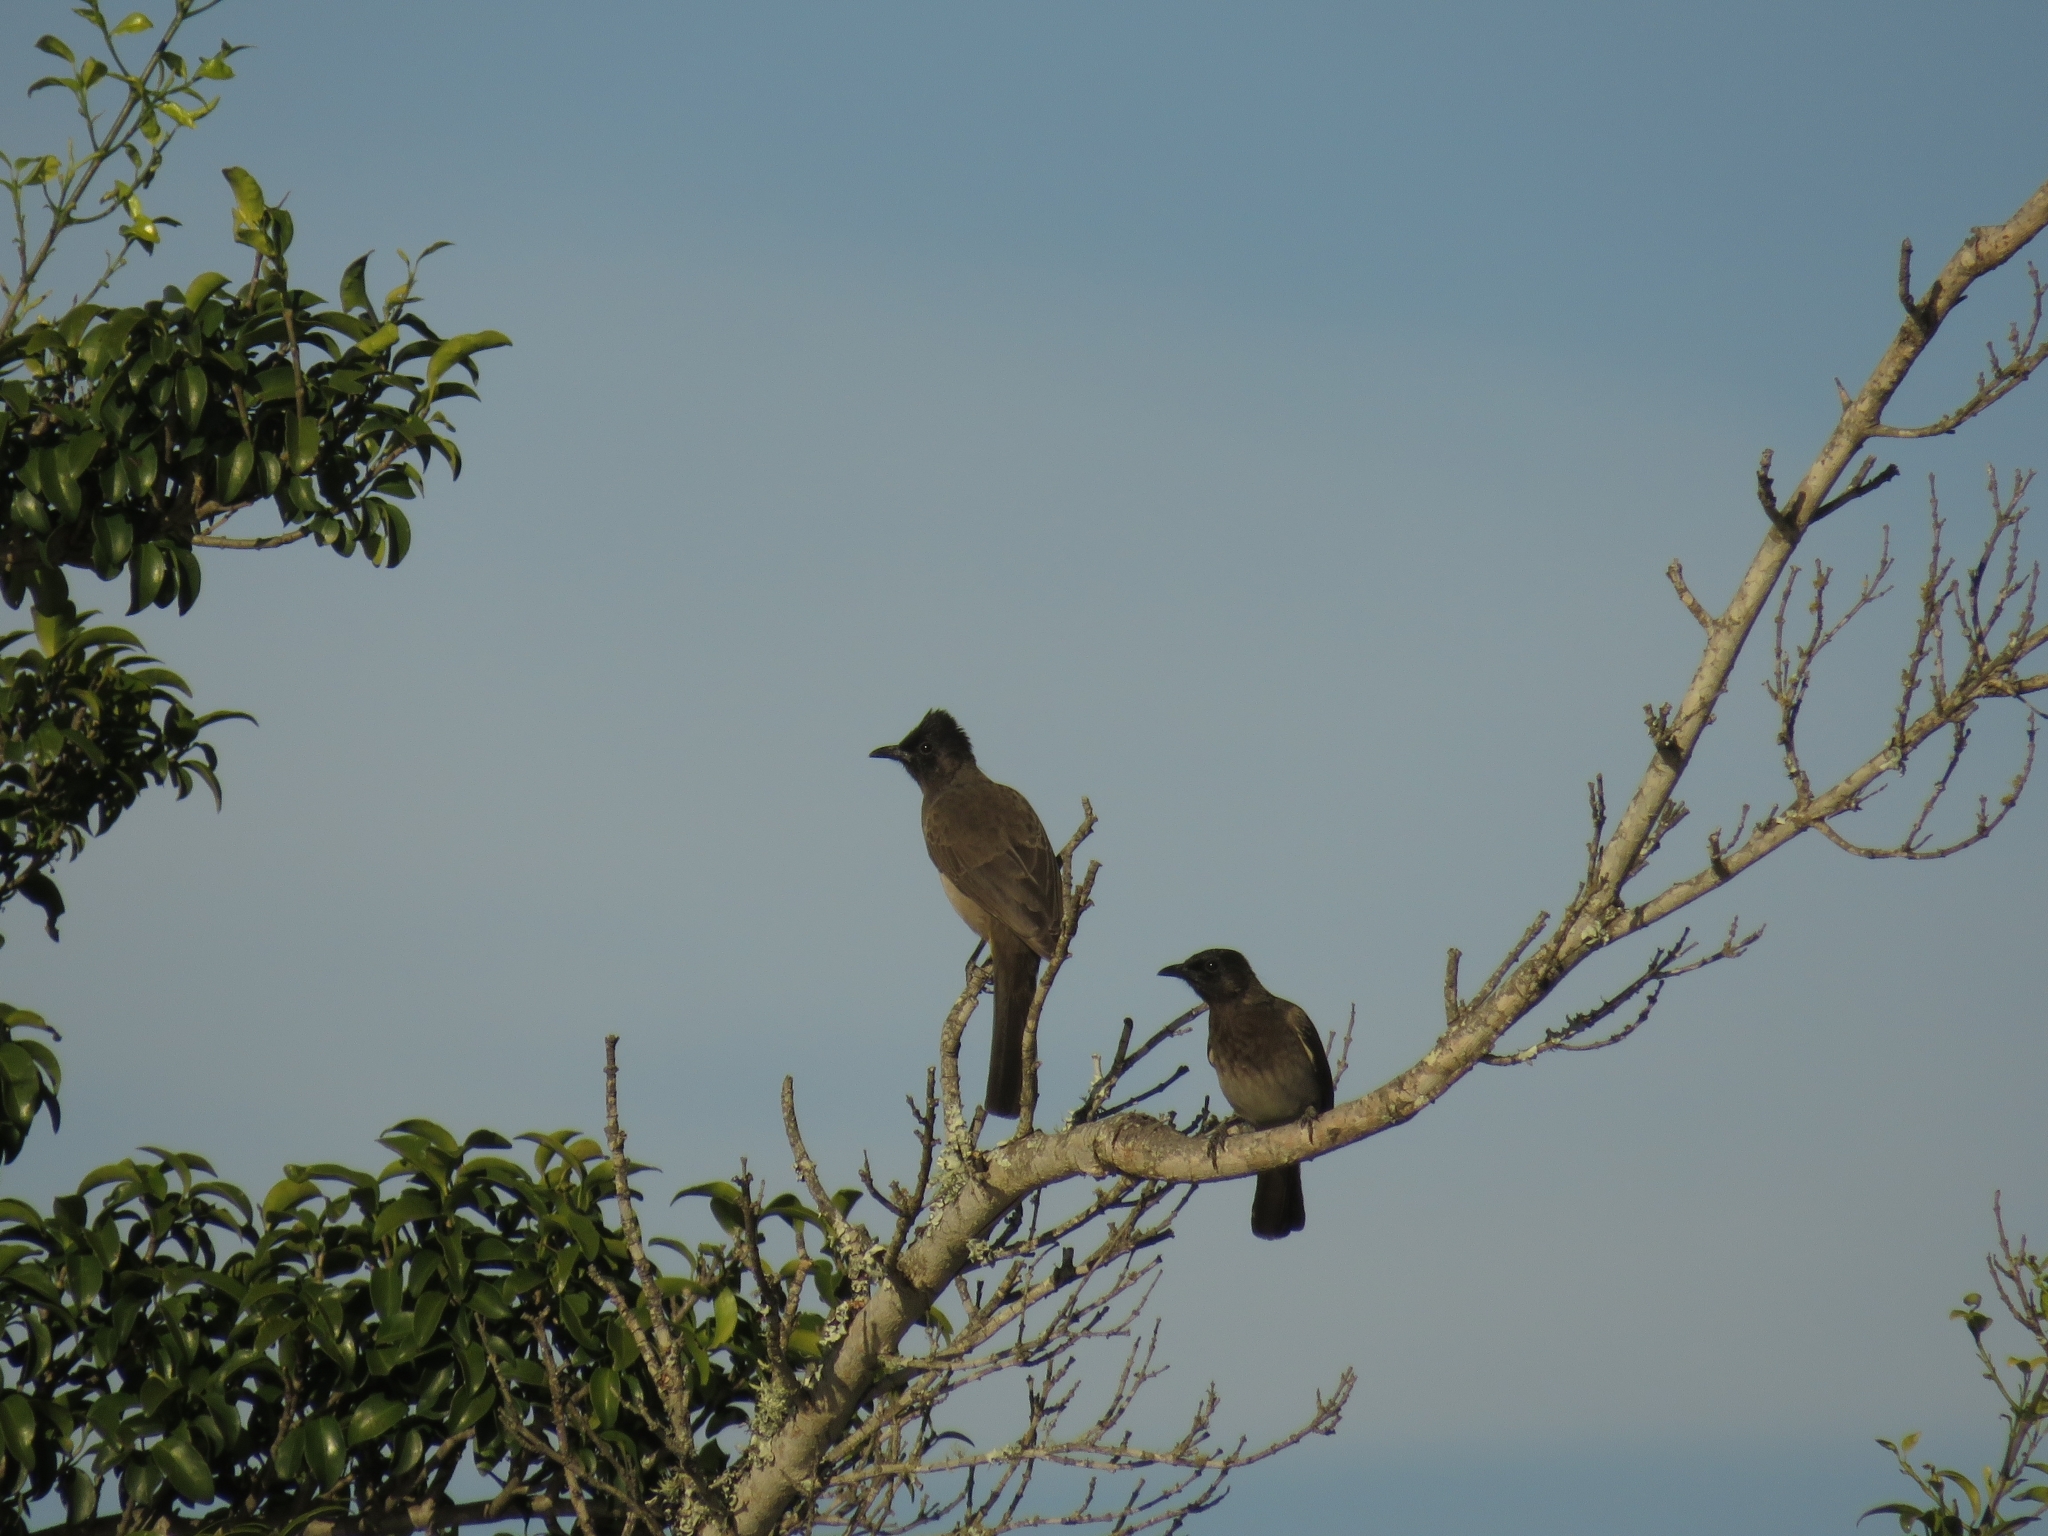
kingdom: Animalia
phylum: Chordata
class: Aves
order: Passeriformes
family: Pycnonotidae
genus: Pycnonotus
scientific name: Pycnonotus barbatus
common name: Common bulbul
